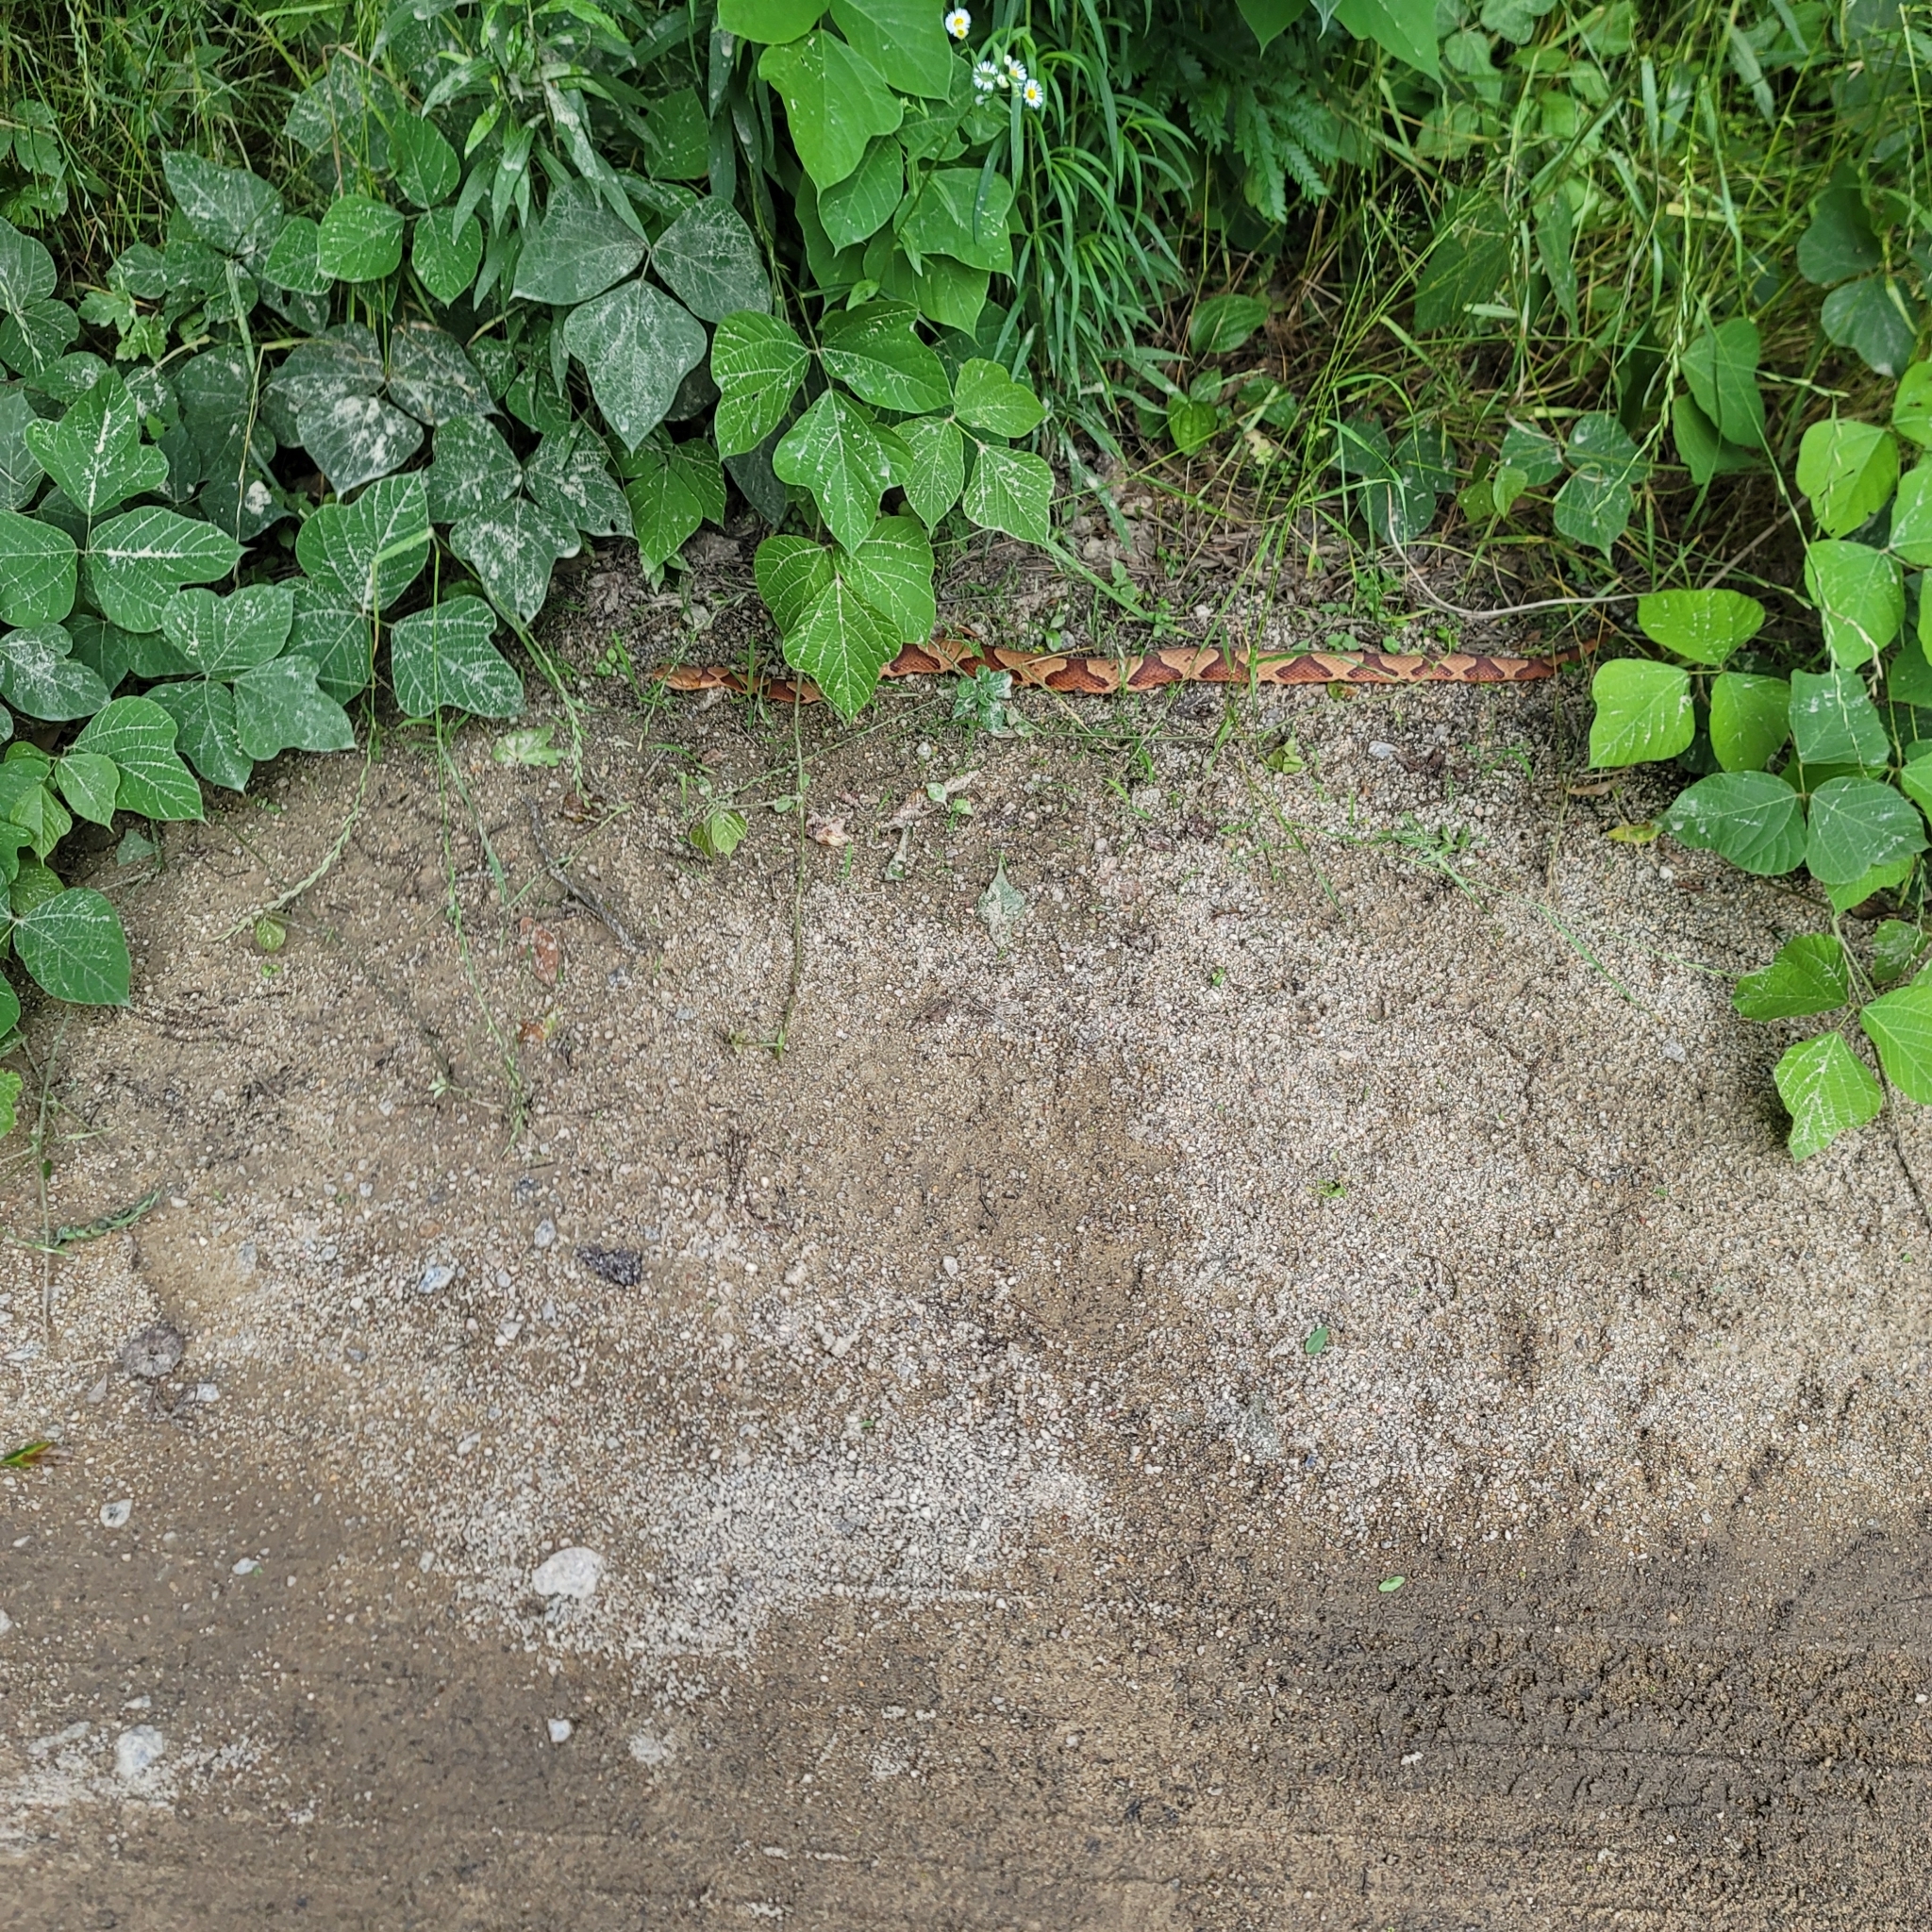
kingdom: Animalia
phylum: Chordata
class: Squamata
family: Viperidae
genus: Agkistrodon
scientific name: Agkistrodon contortrix
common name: Northern copperhead
